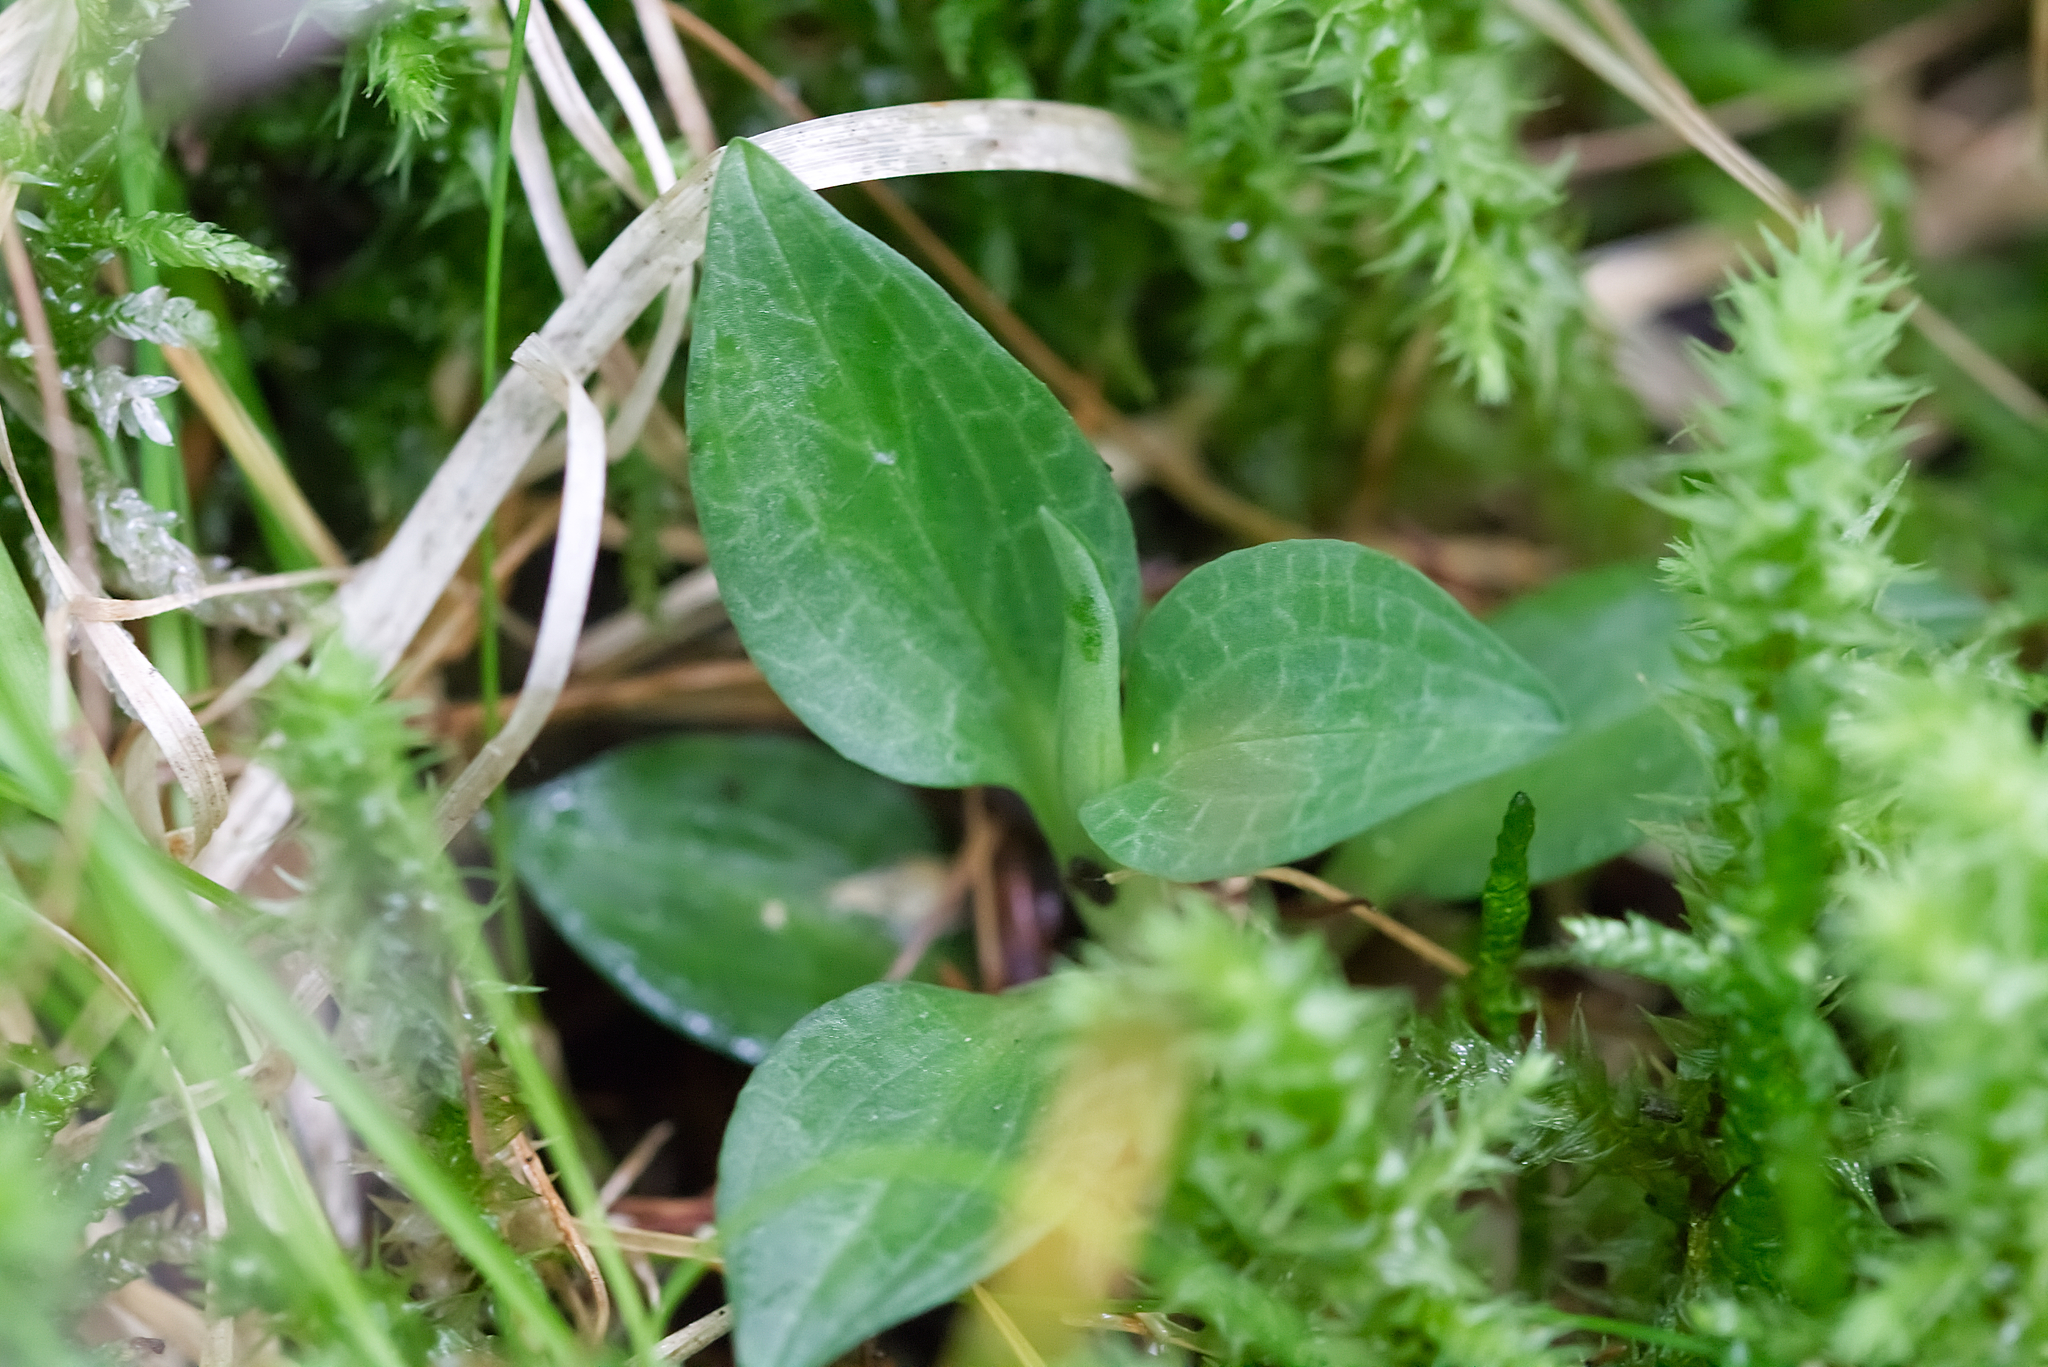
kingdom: Plantae
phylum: Tracheophyta
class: Liliopsida
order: Asparagales
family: Orchidaceae
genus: Goodyera
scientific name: Goodyera repens
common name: Creeping lady's-tresses
